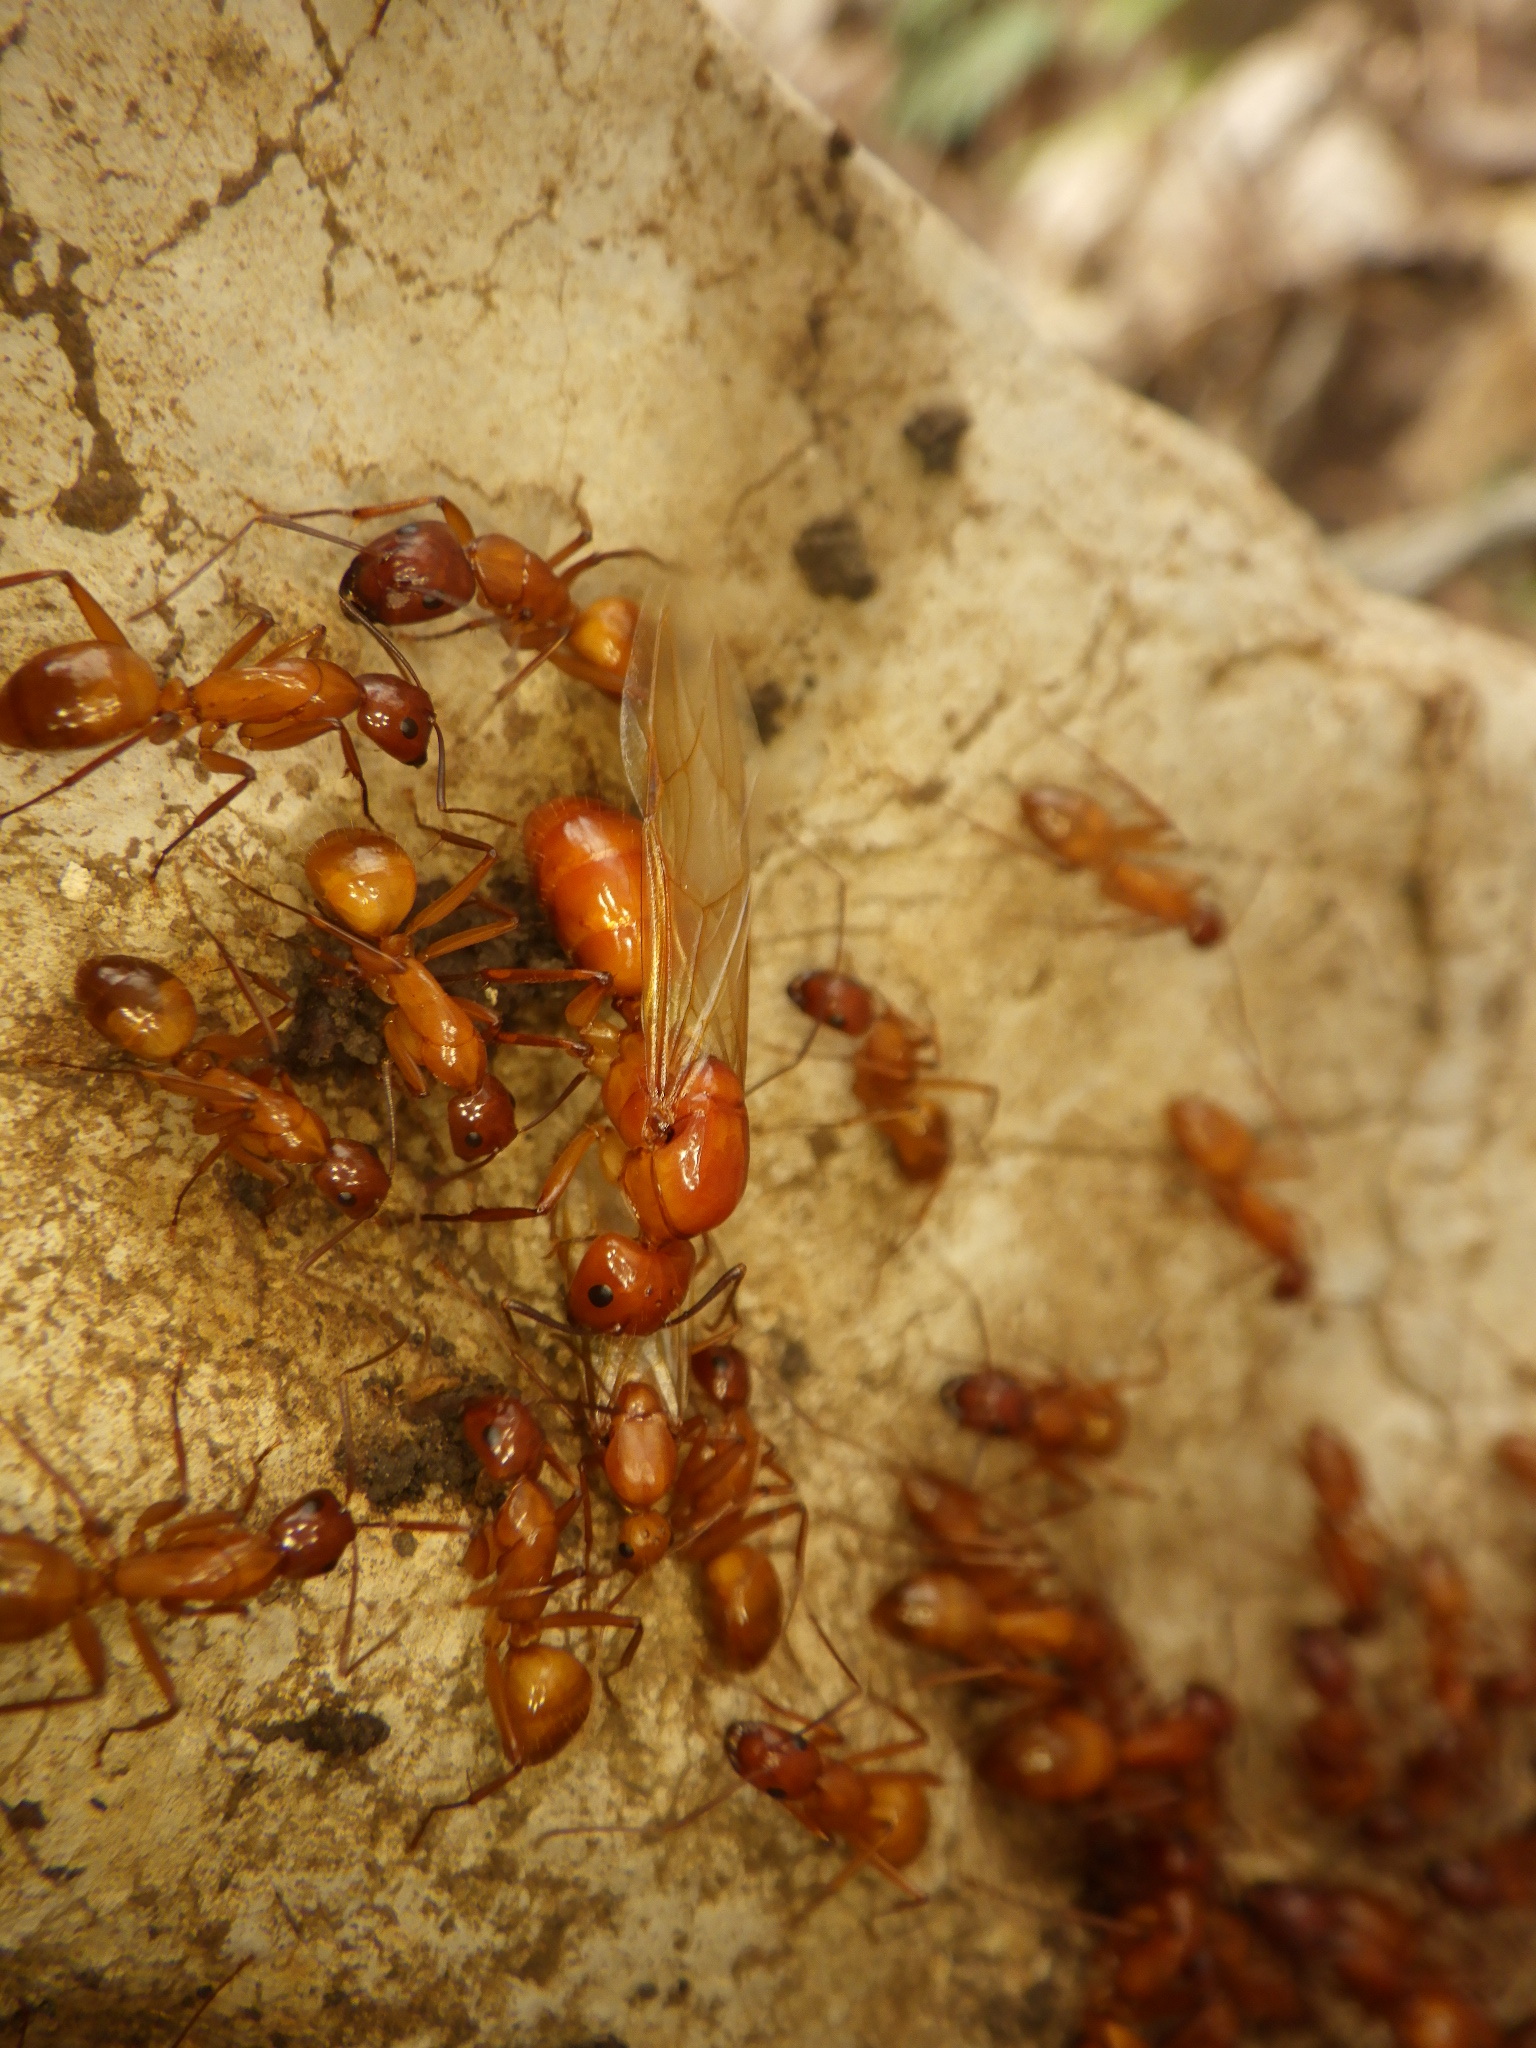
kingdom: Animalia
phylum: Arthropoda
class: Insecta
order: Hymenoptera
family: Formicidae
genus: Camponotus
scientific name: Camponotus castaneus
